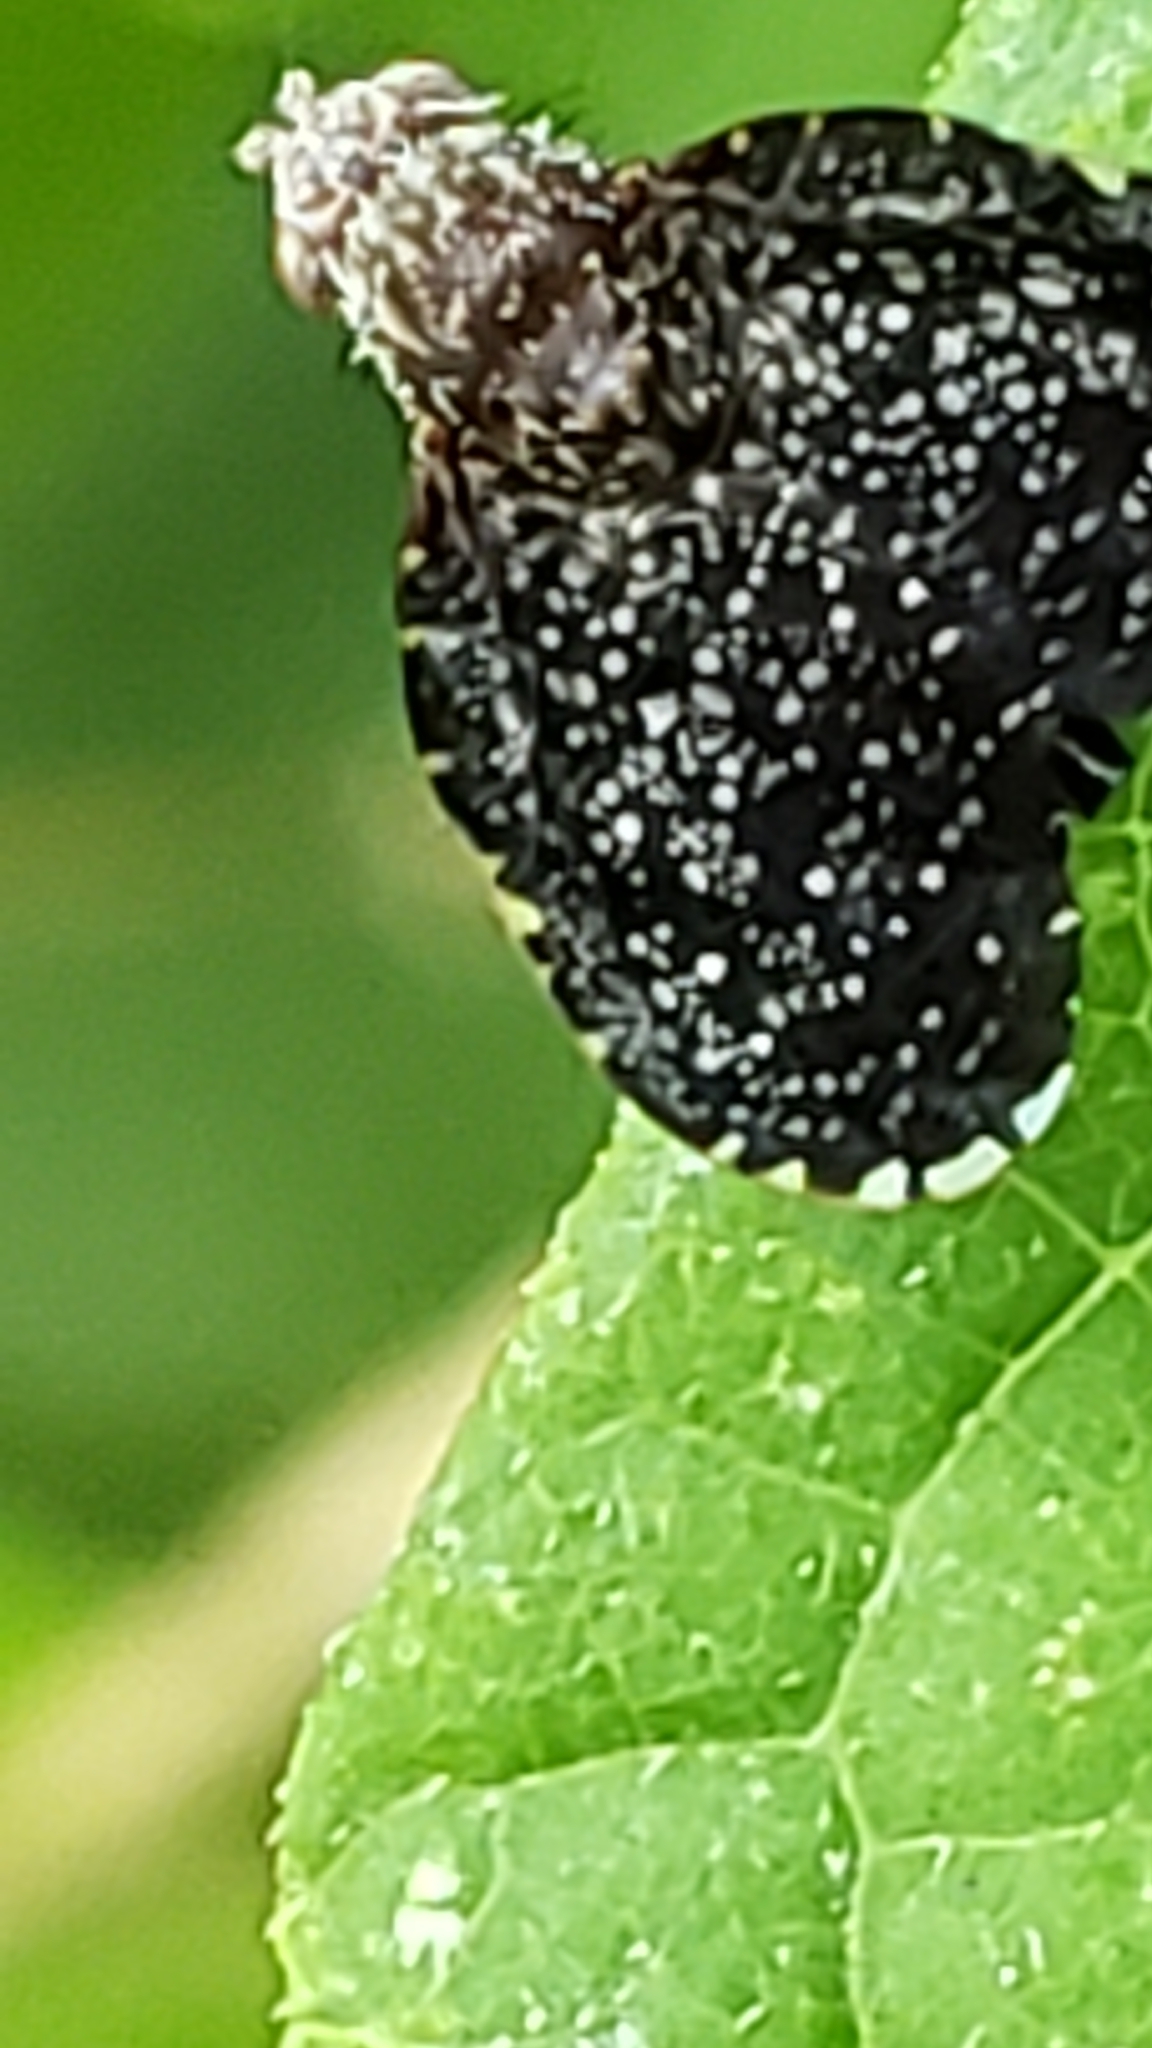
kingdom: Animalia
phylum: Arthropoda
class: Insecta
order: Diptera
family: Tephritidae
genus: Eutreta
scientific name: Eutreta rotundipennis
